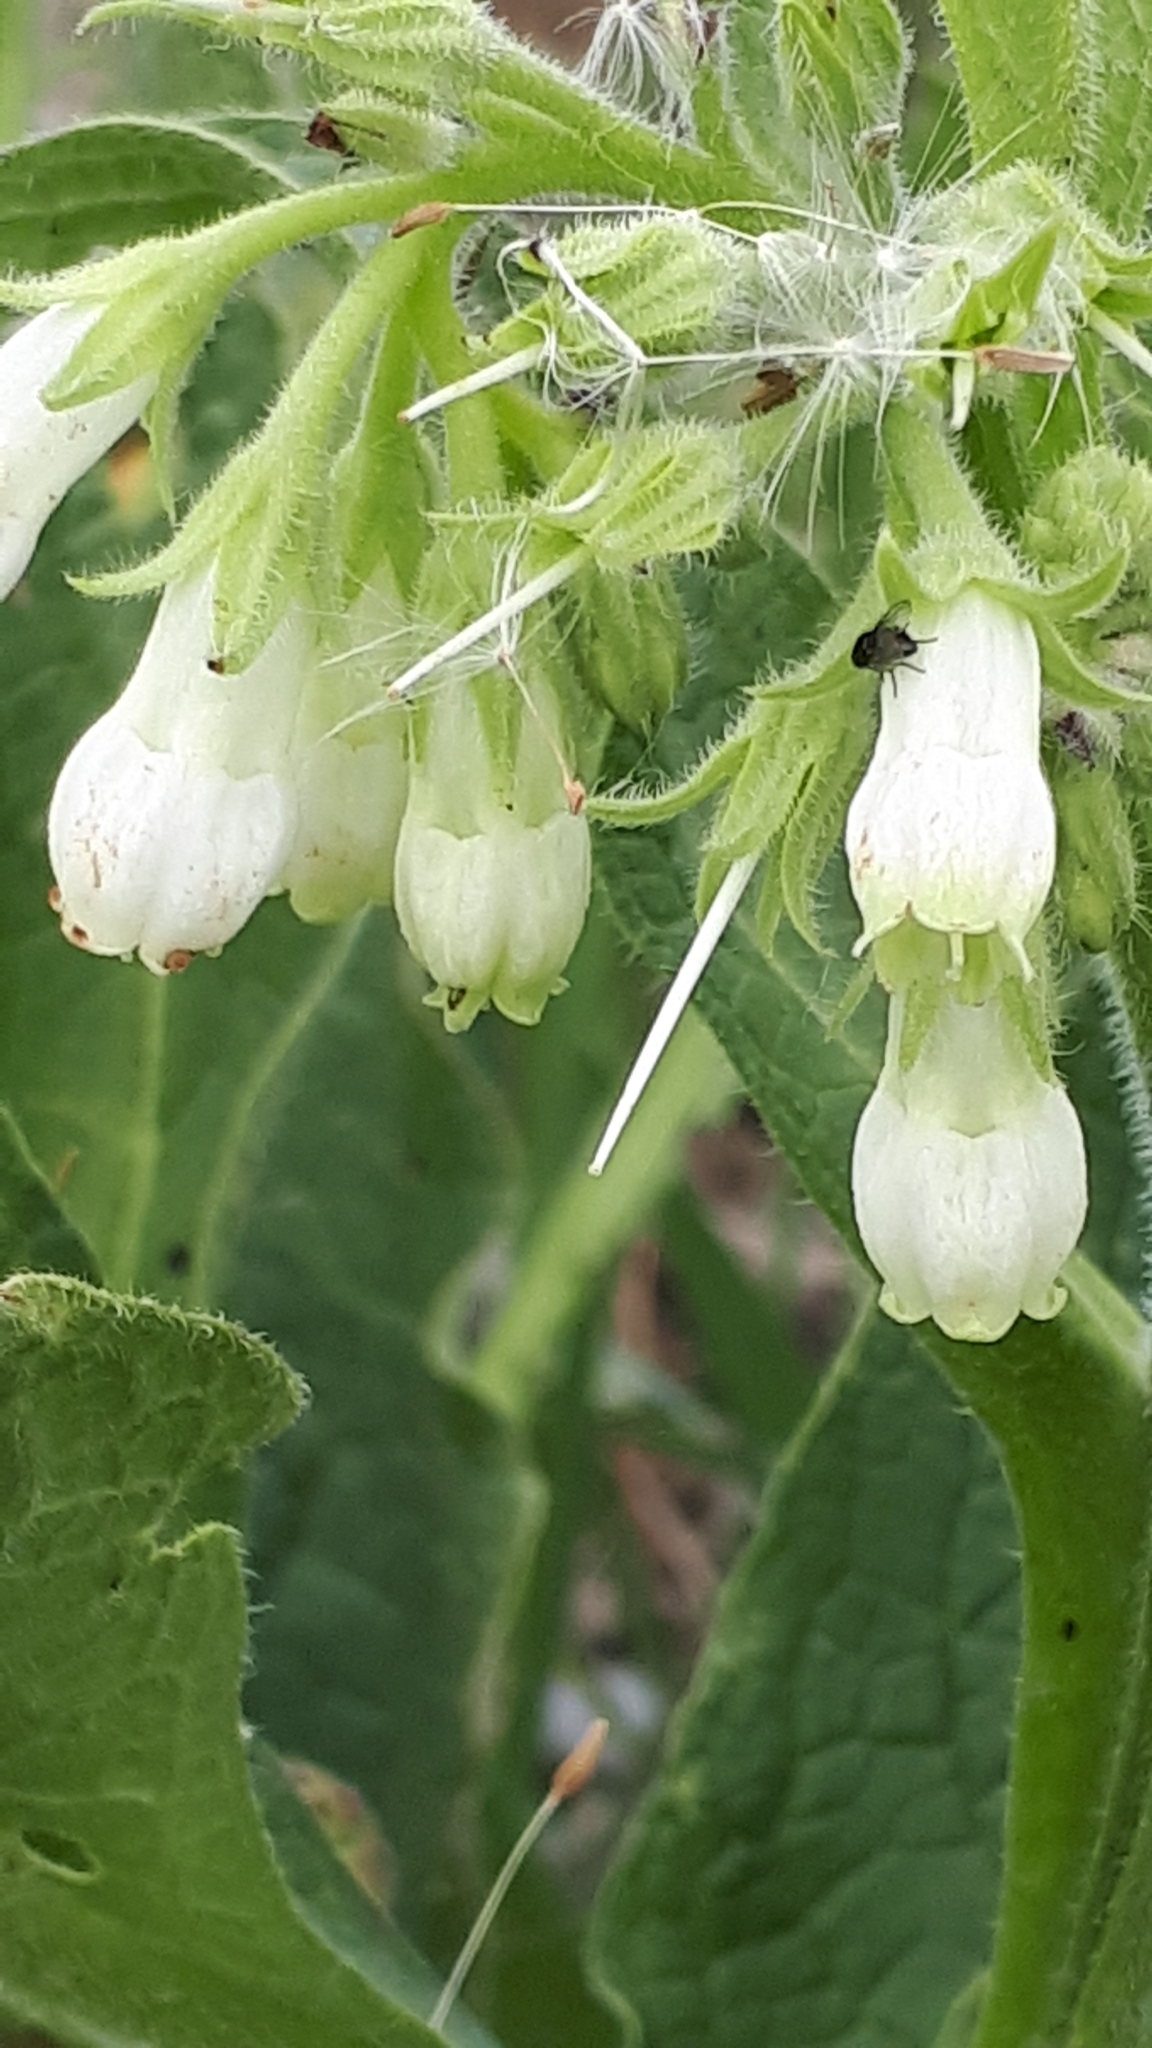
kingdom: Plantae
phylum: Tracheophyta
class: Magnoliopsida
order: Boraginales
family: Boraginaceae
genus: Symphytum
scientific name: Symphytum bohemicum
